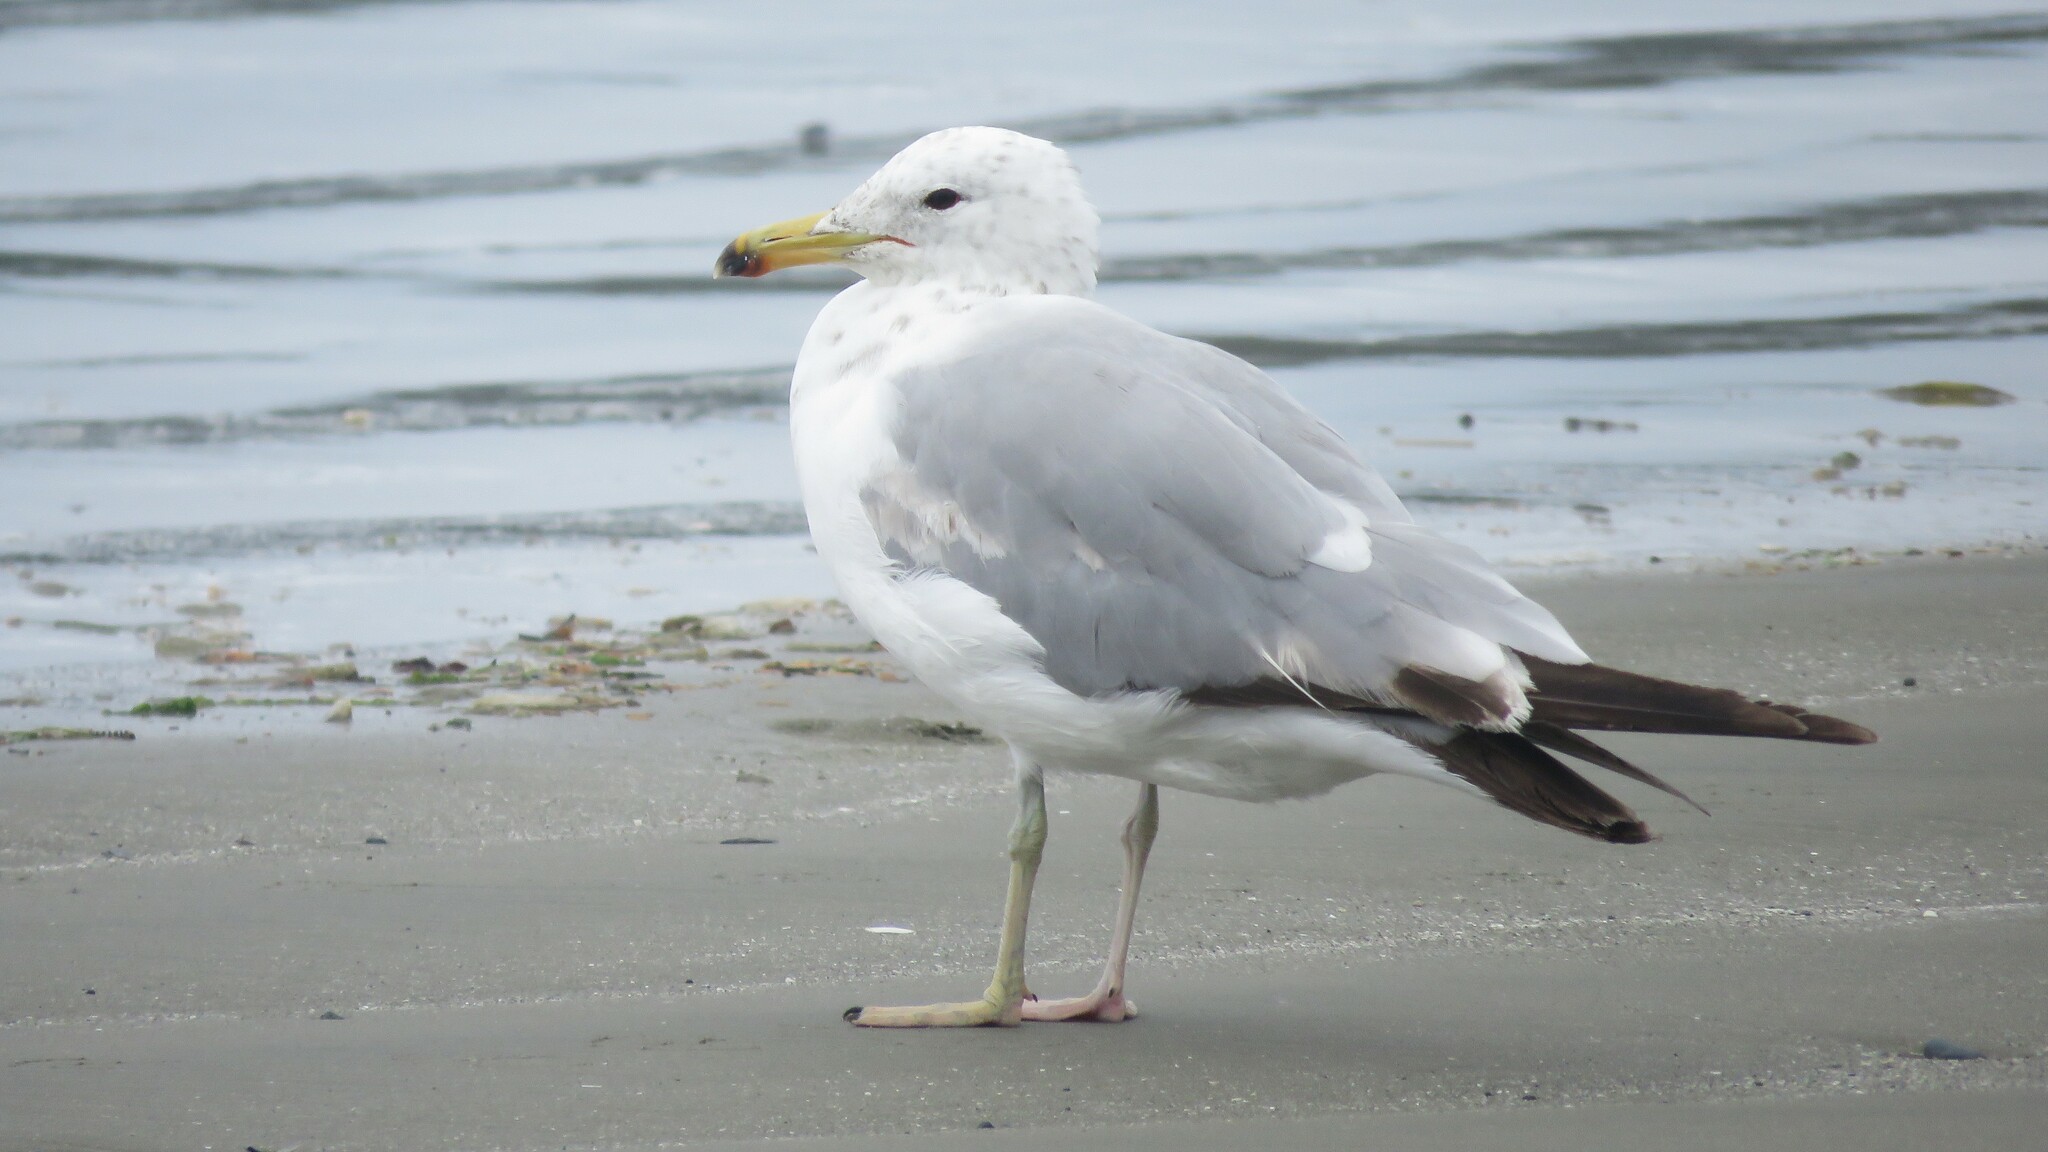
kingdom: Animalia
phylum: Chordata
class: Aves
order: Charadriiformes
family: Laridae
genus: Larus
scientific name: Larus californicus
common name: California gull
